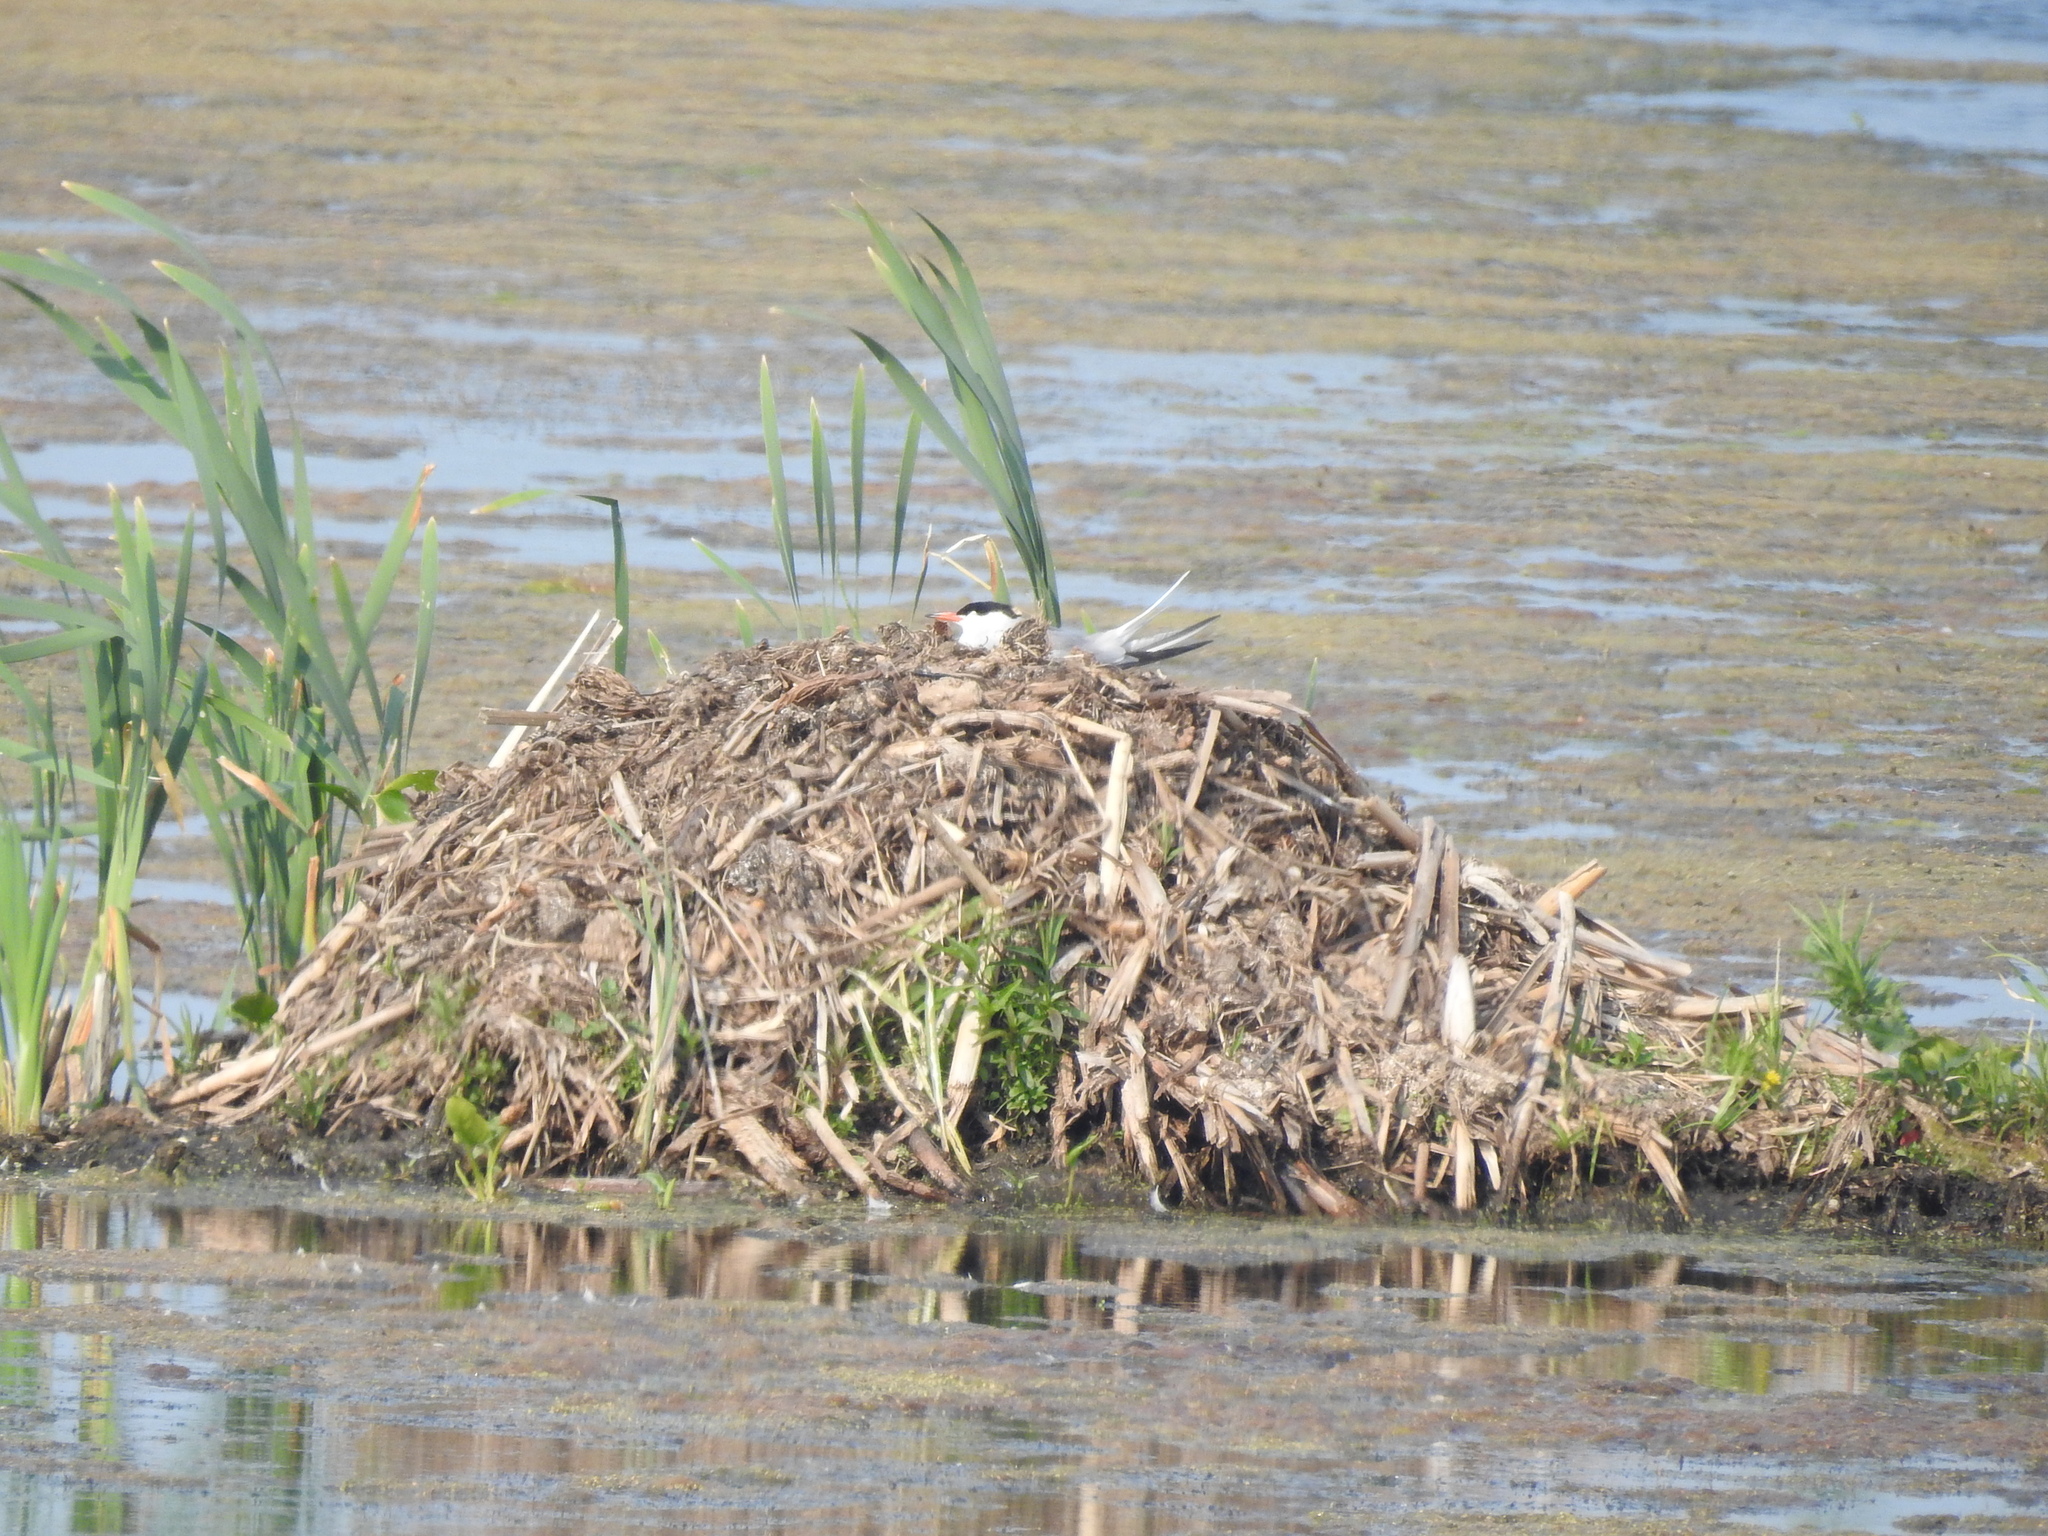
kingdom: Animalia
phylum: Chordata
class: Aves
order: Charadriiformes
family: Laridae
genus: Sterna
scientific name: Sterna hirundo
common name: Common tern
